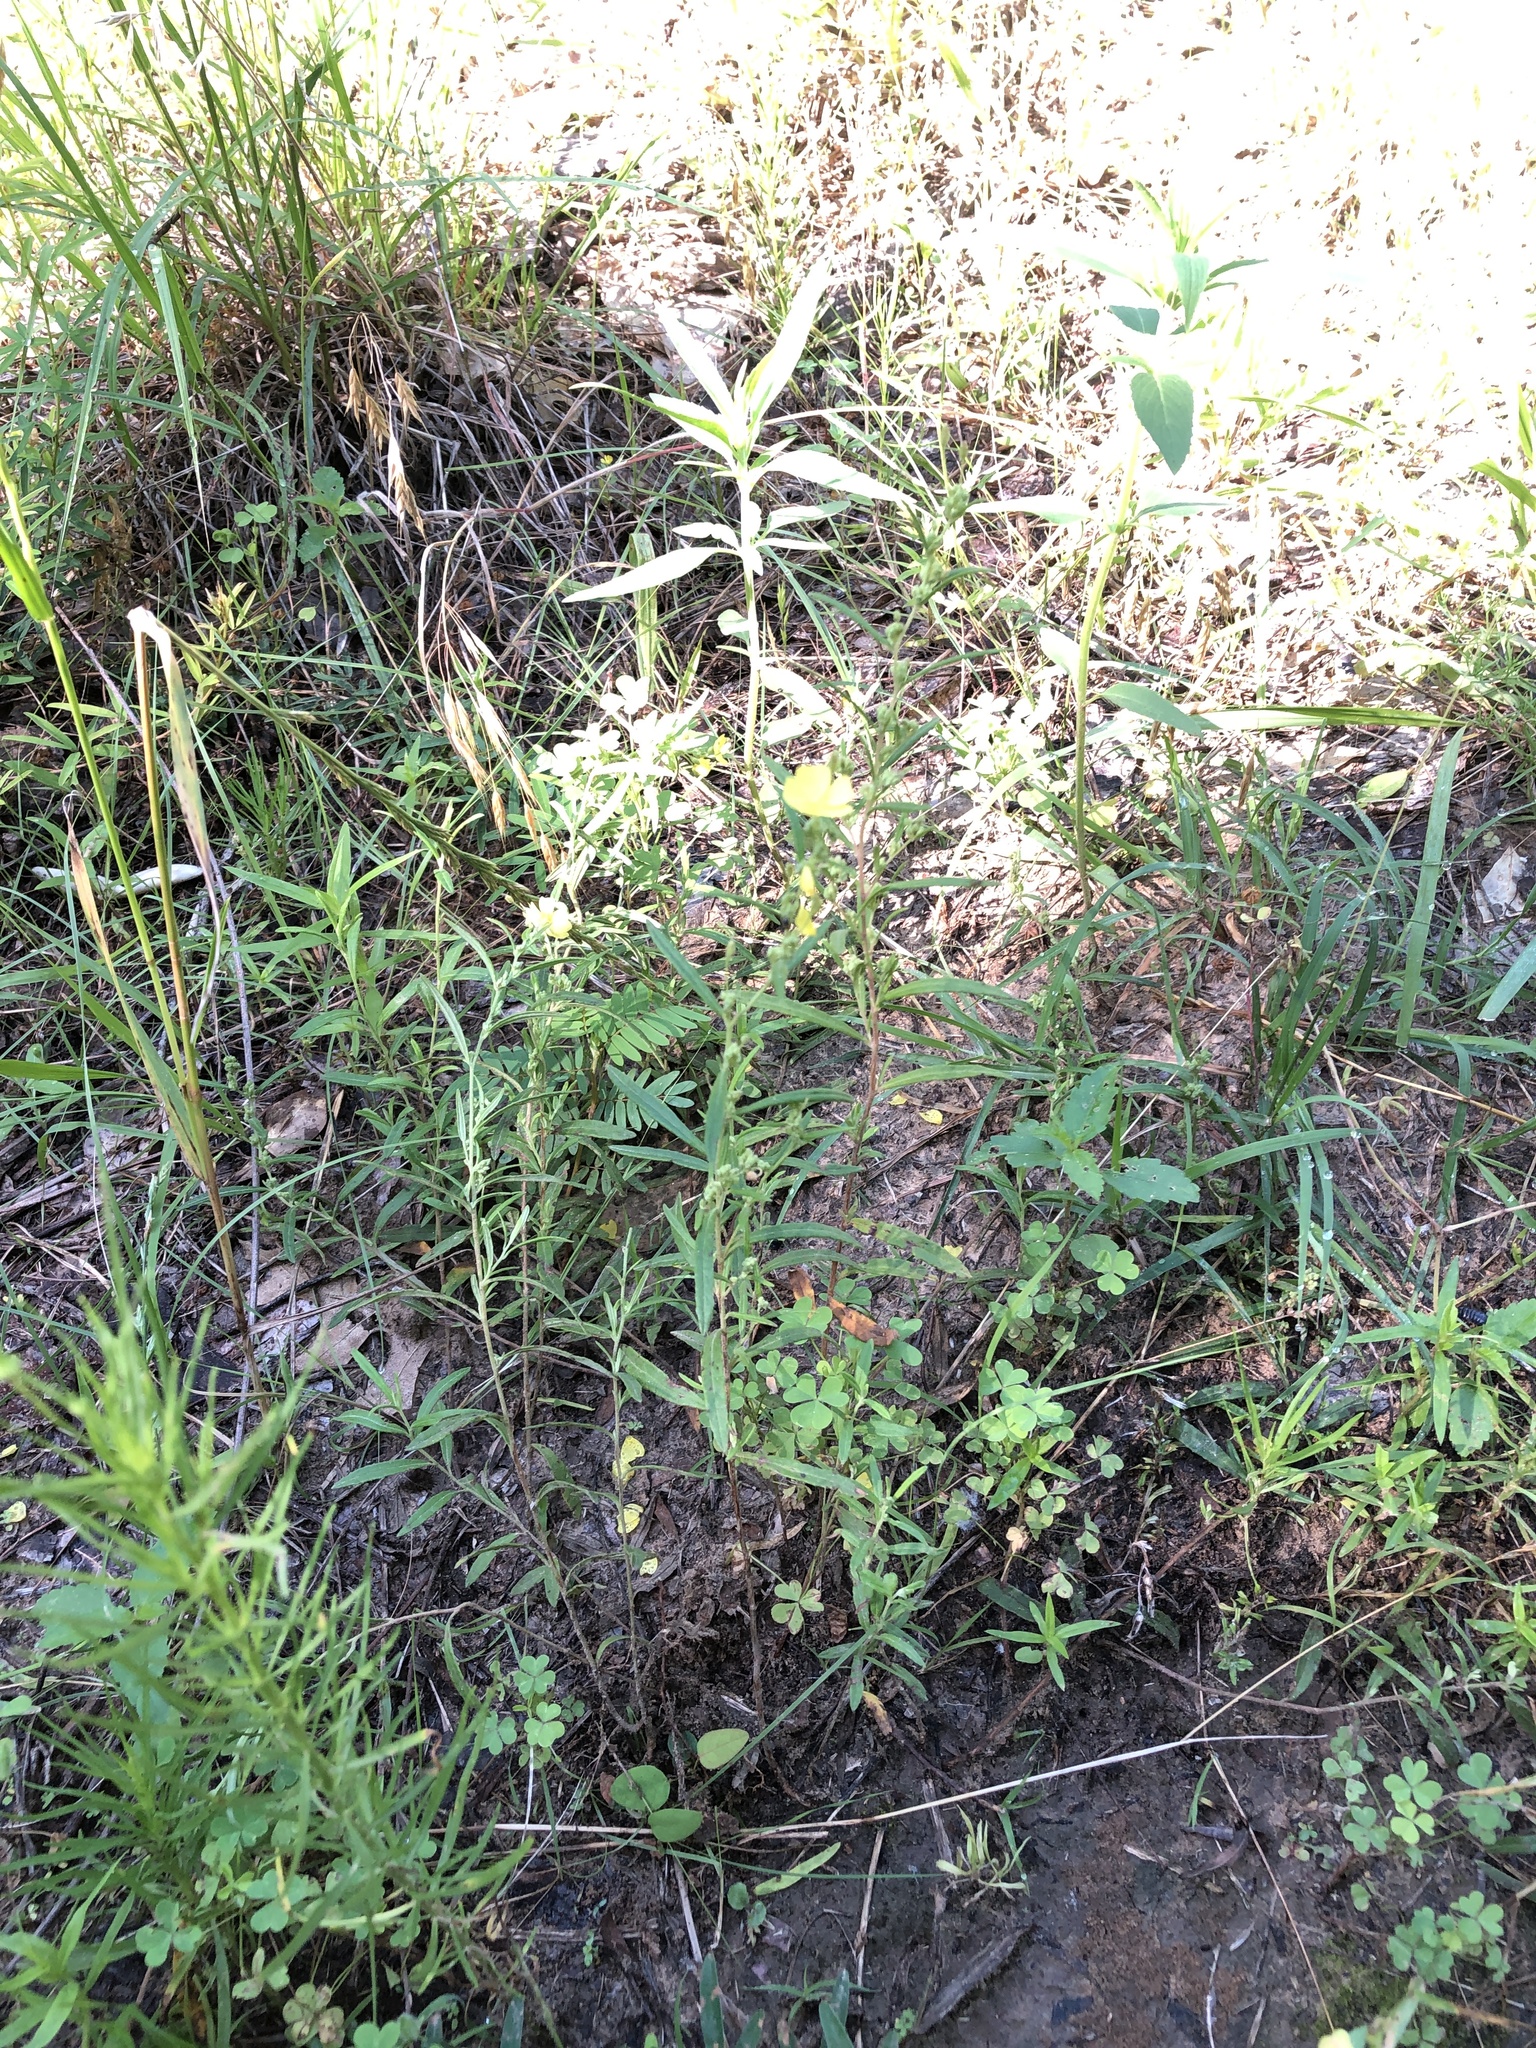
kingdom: Plantae
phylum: Tracheophyta
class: Magnoliopsida
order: Malvales
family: Cistaceae
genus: Crocanthemum
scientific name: Crocanthemum rosmarinifolium
